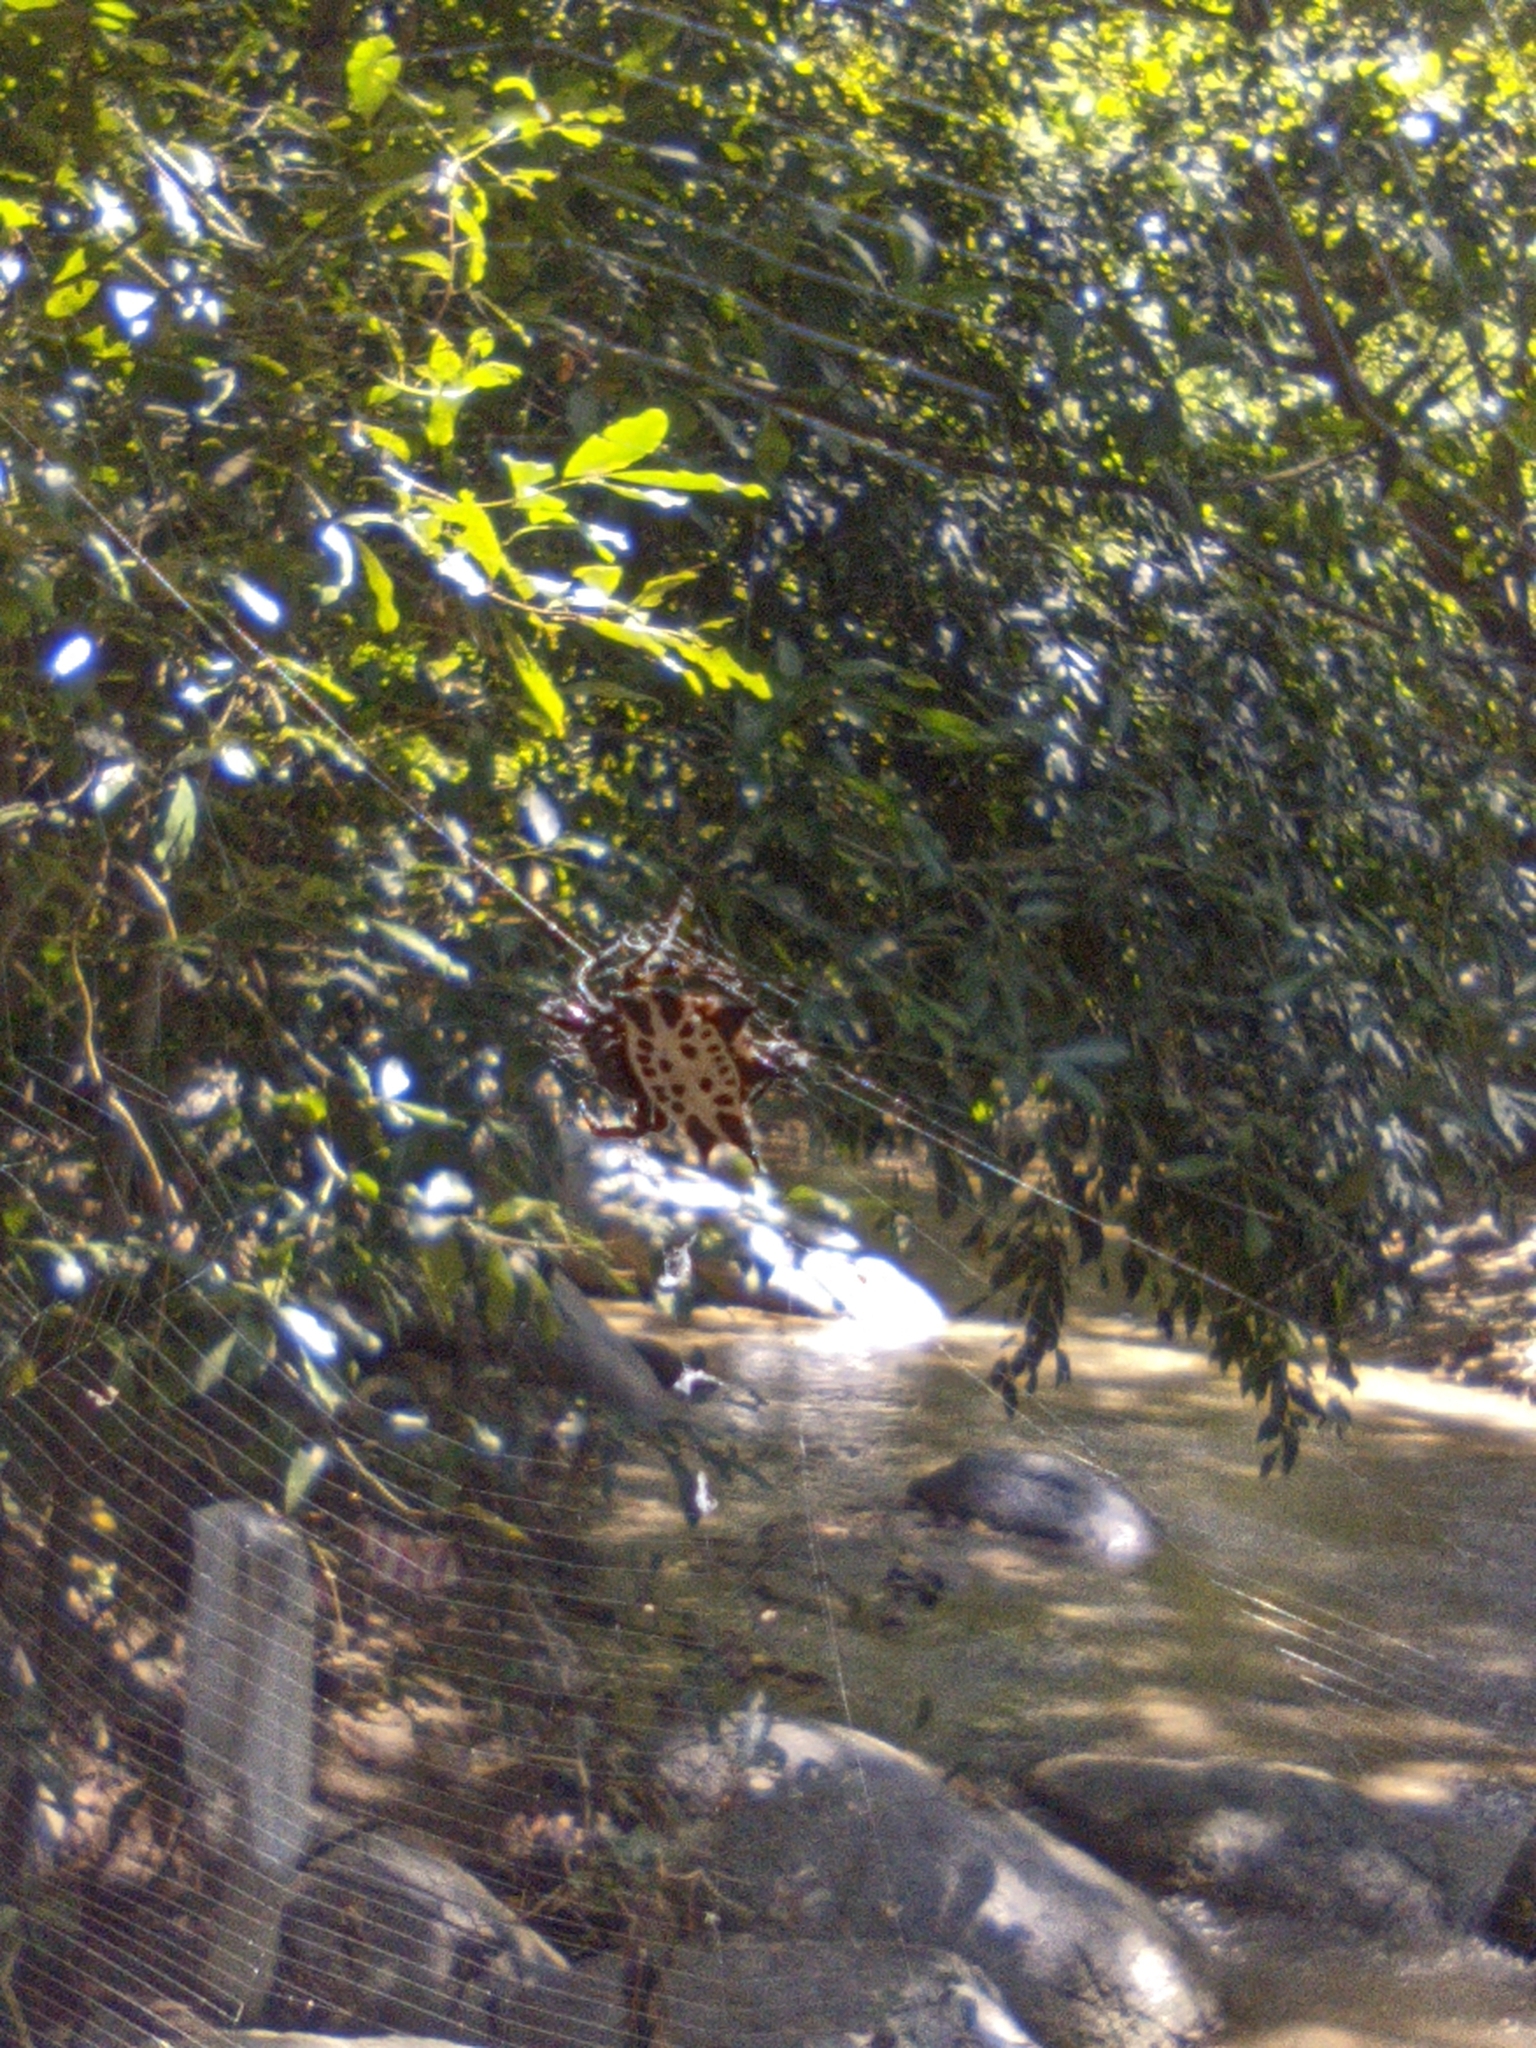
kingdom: Animalia
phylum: Arthropoda
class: Arachnida
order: Araneae
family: Araneidae
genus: Gasteracantha
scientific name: Gasteracantha cancriformis
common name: Orb weavers
